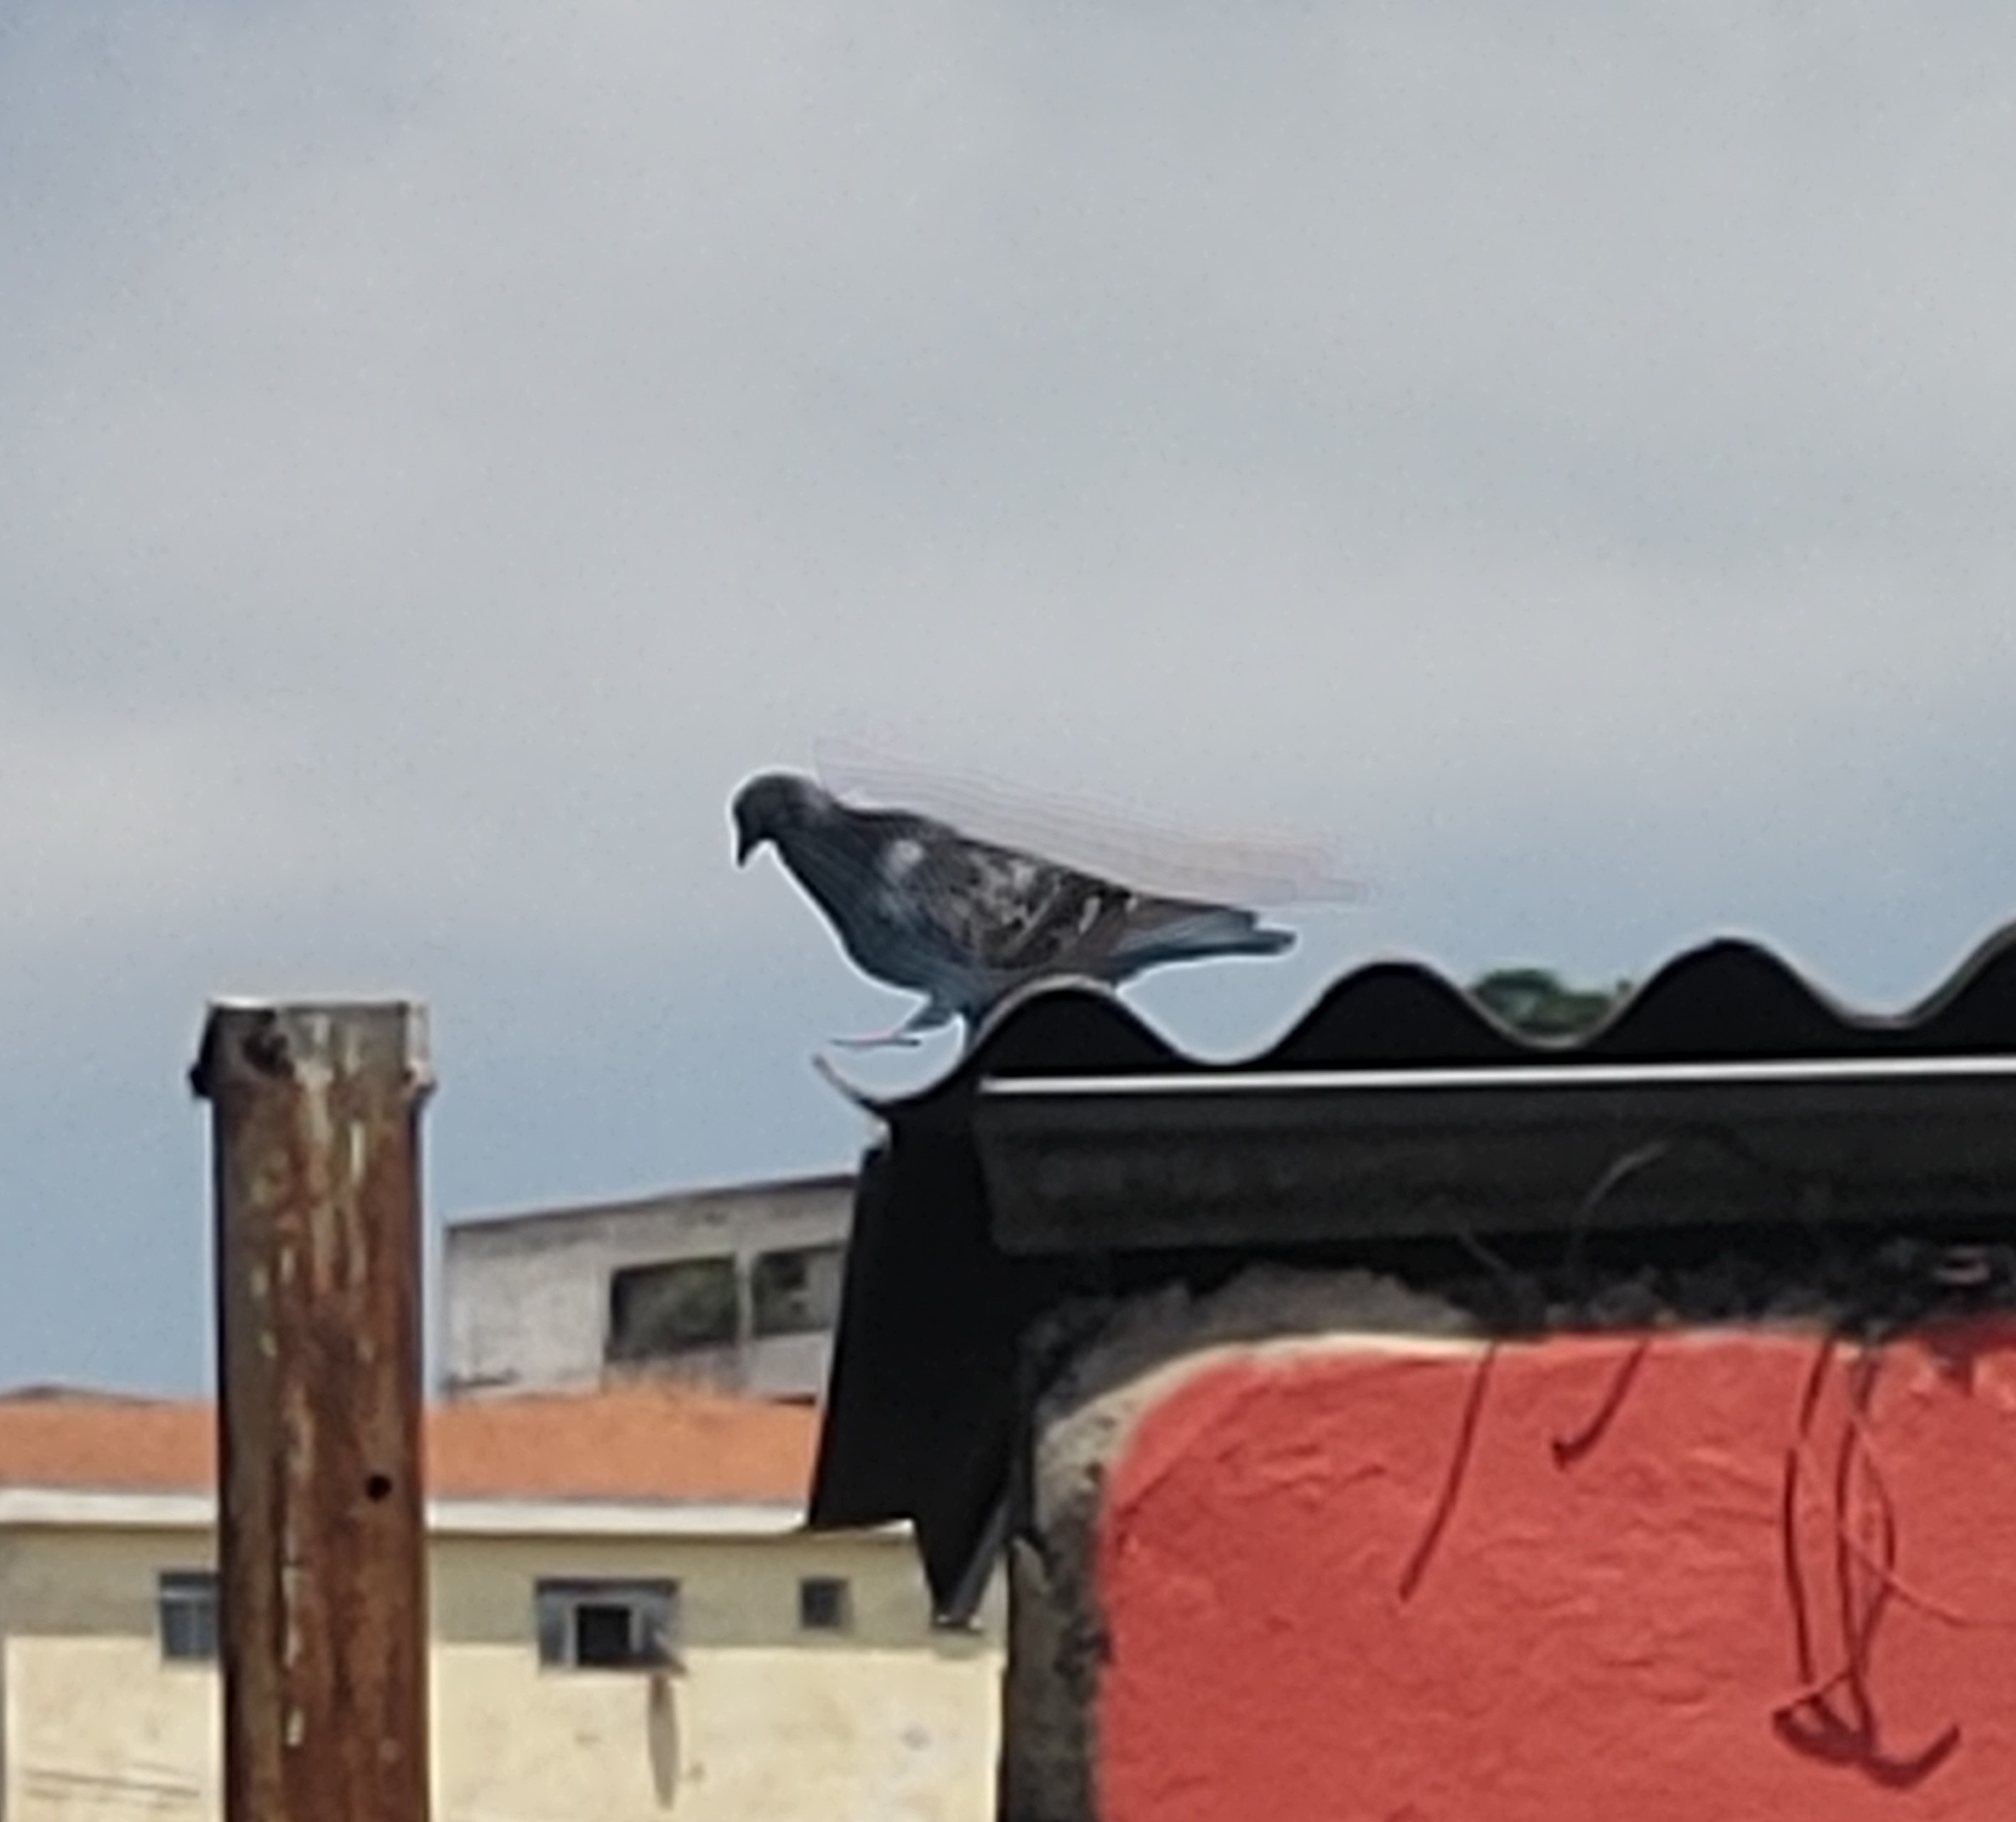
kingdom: Animalia
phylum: Chordata
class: Aves
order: Columbiformes
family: Columbidae
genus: Columba
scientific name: Columba livia
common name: Rock pigeon
